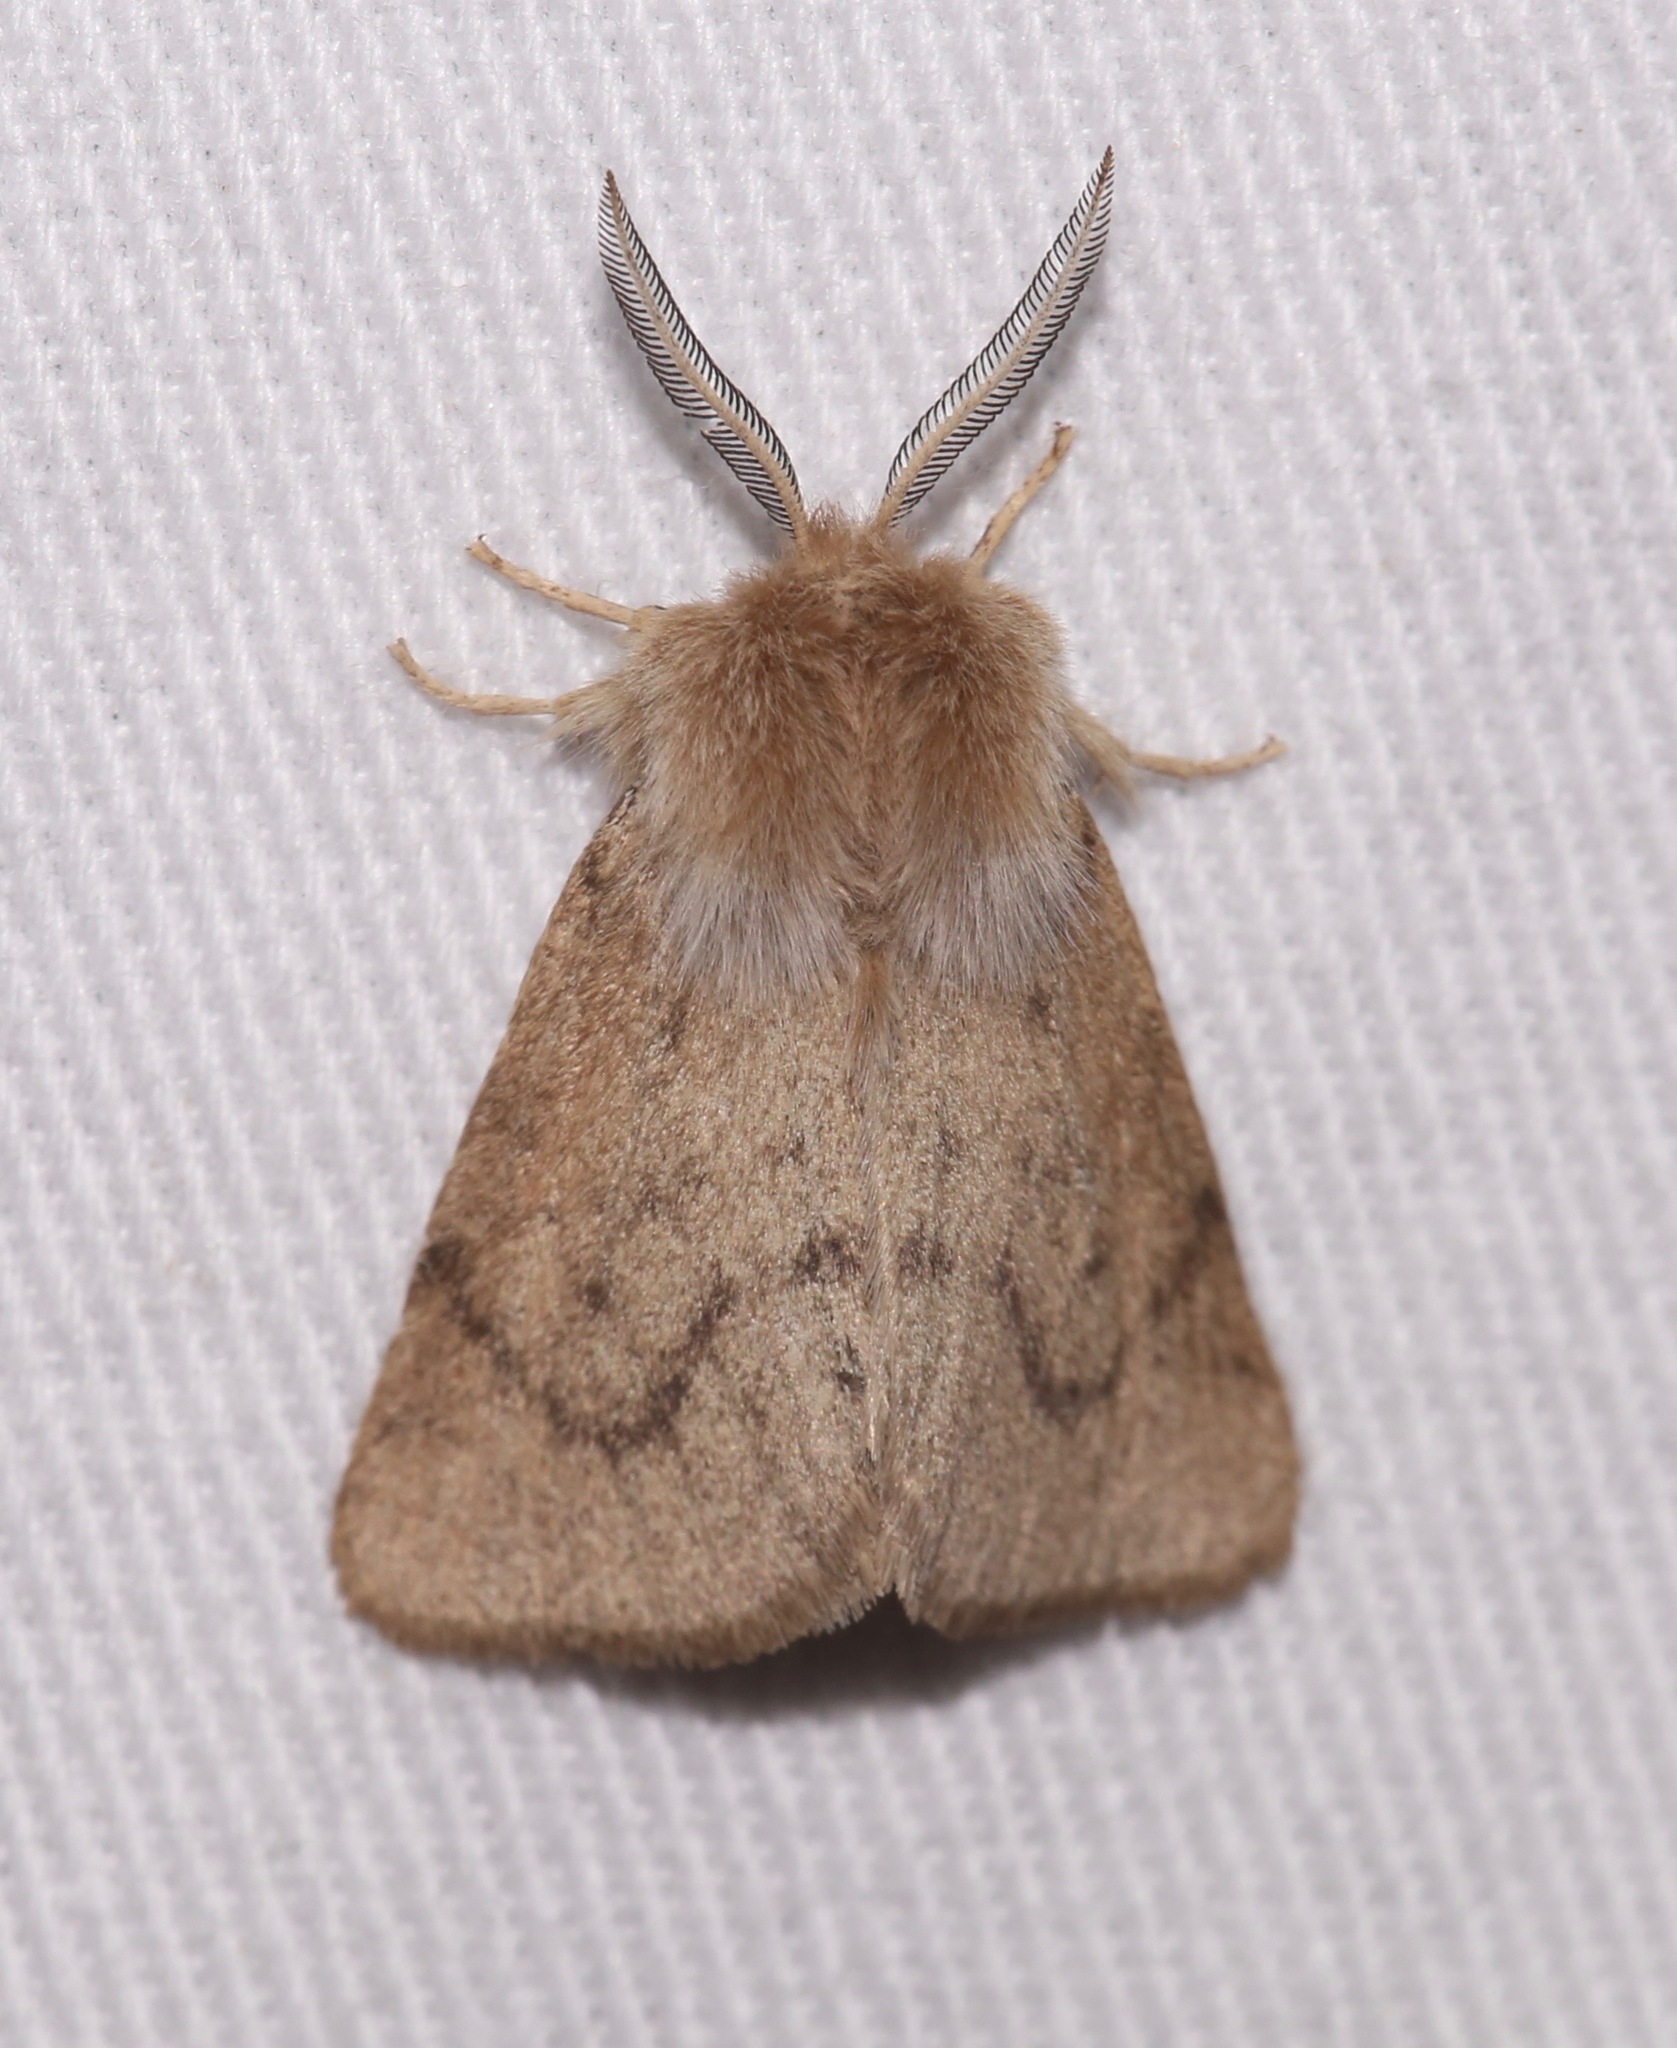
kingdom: Animalia
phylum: Arthropoda
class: Insecta
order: Lepidoptera
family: Erebidae
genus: Spilosoma
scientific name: Spilosoma vagans
